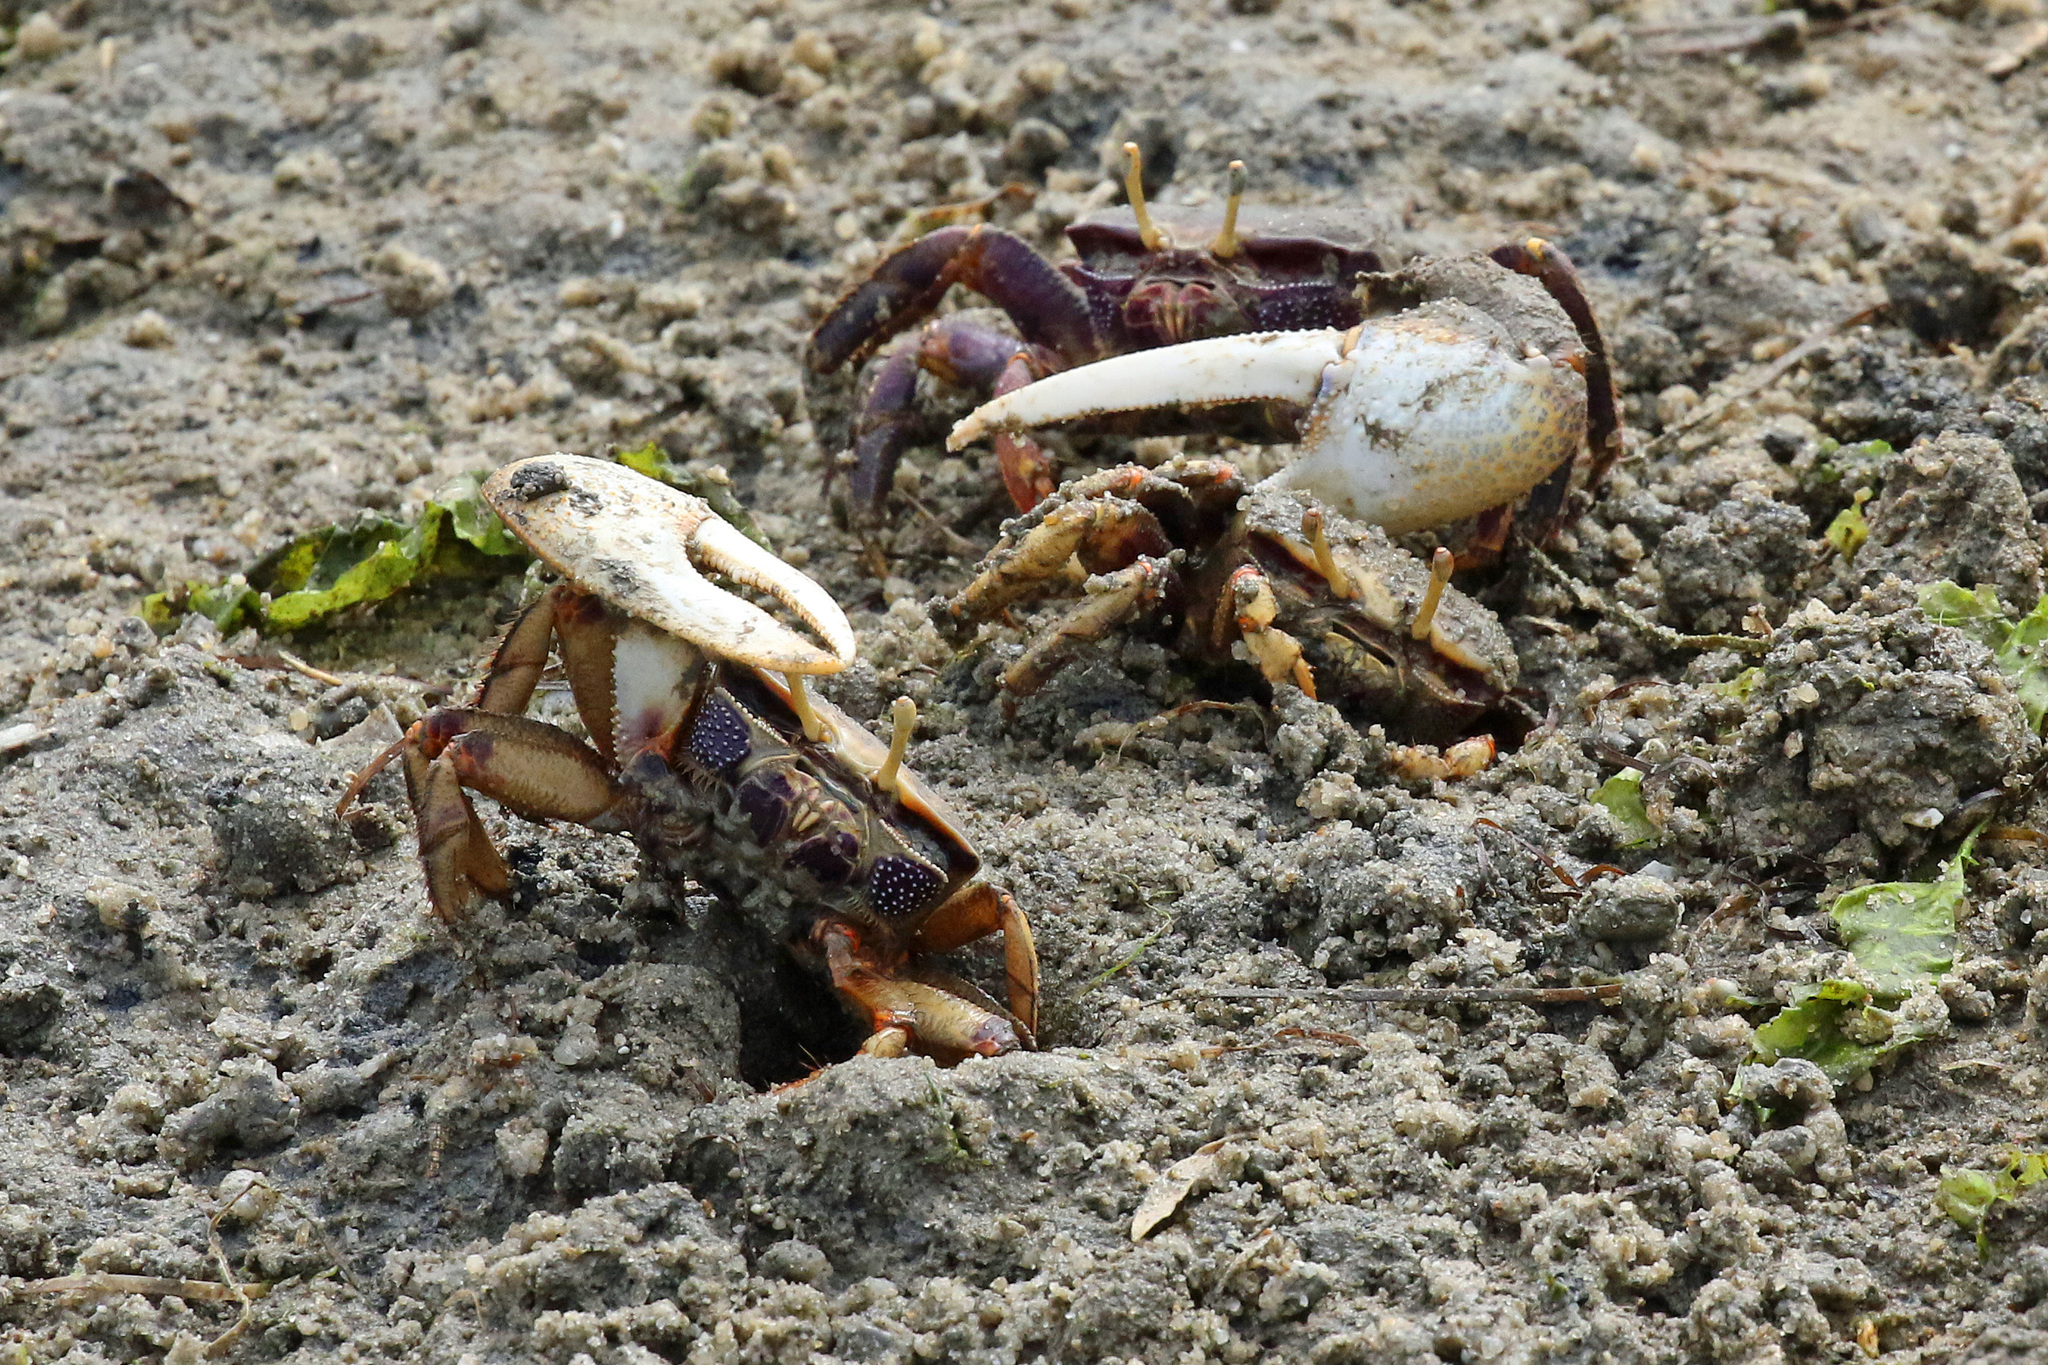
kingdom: Animalia
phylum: Arthropoda
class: Malacostraca
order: Decapoda
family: Ocypodidae
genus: Afruca
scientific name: Afruca tangeri
